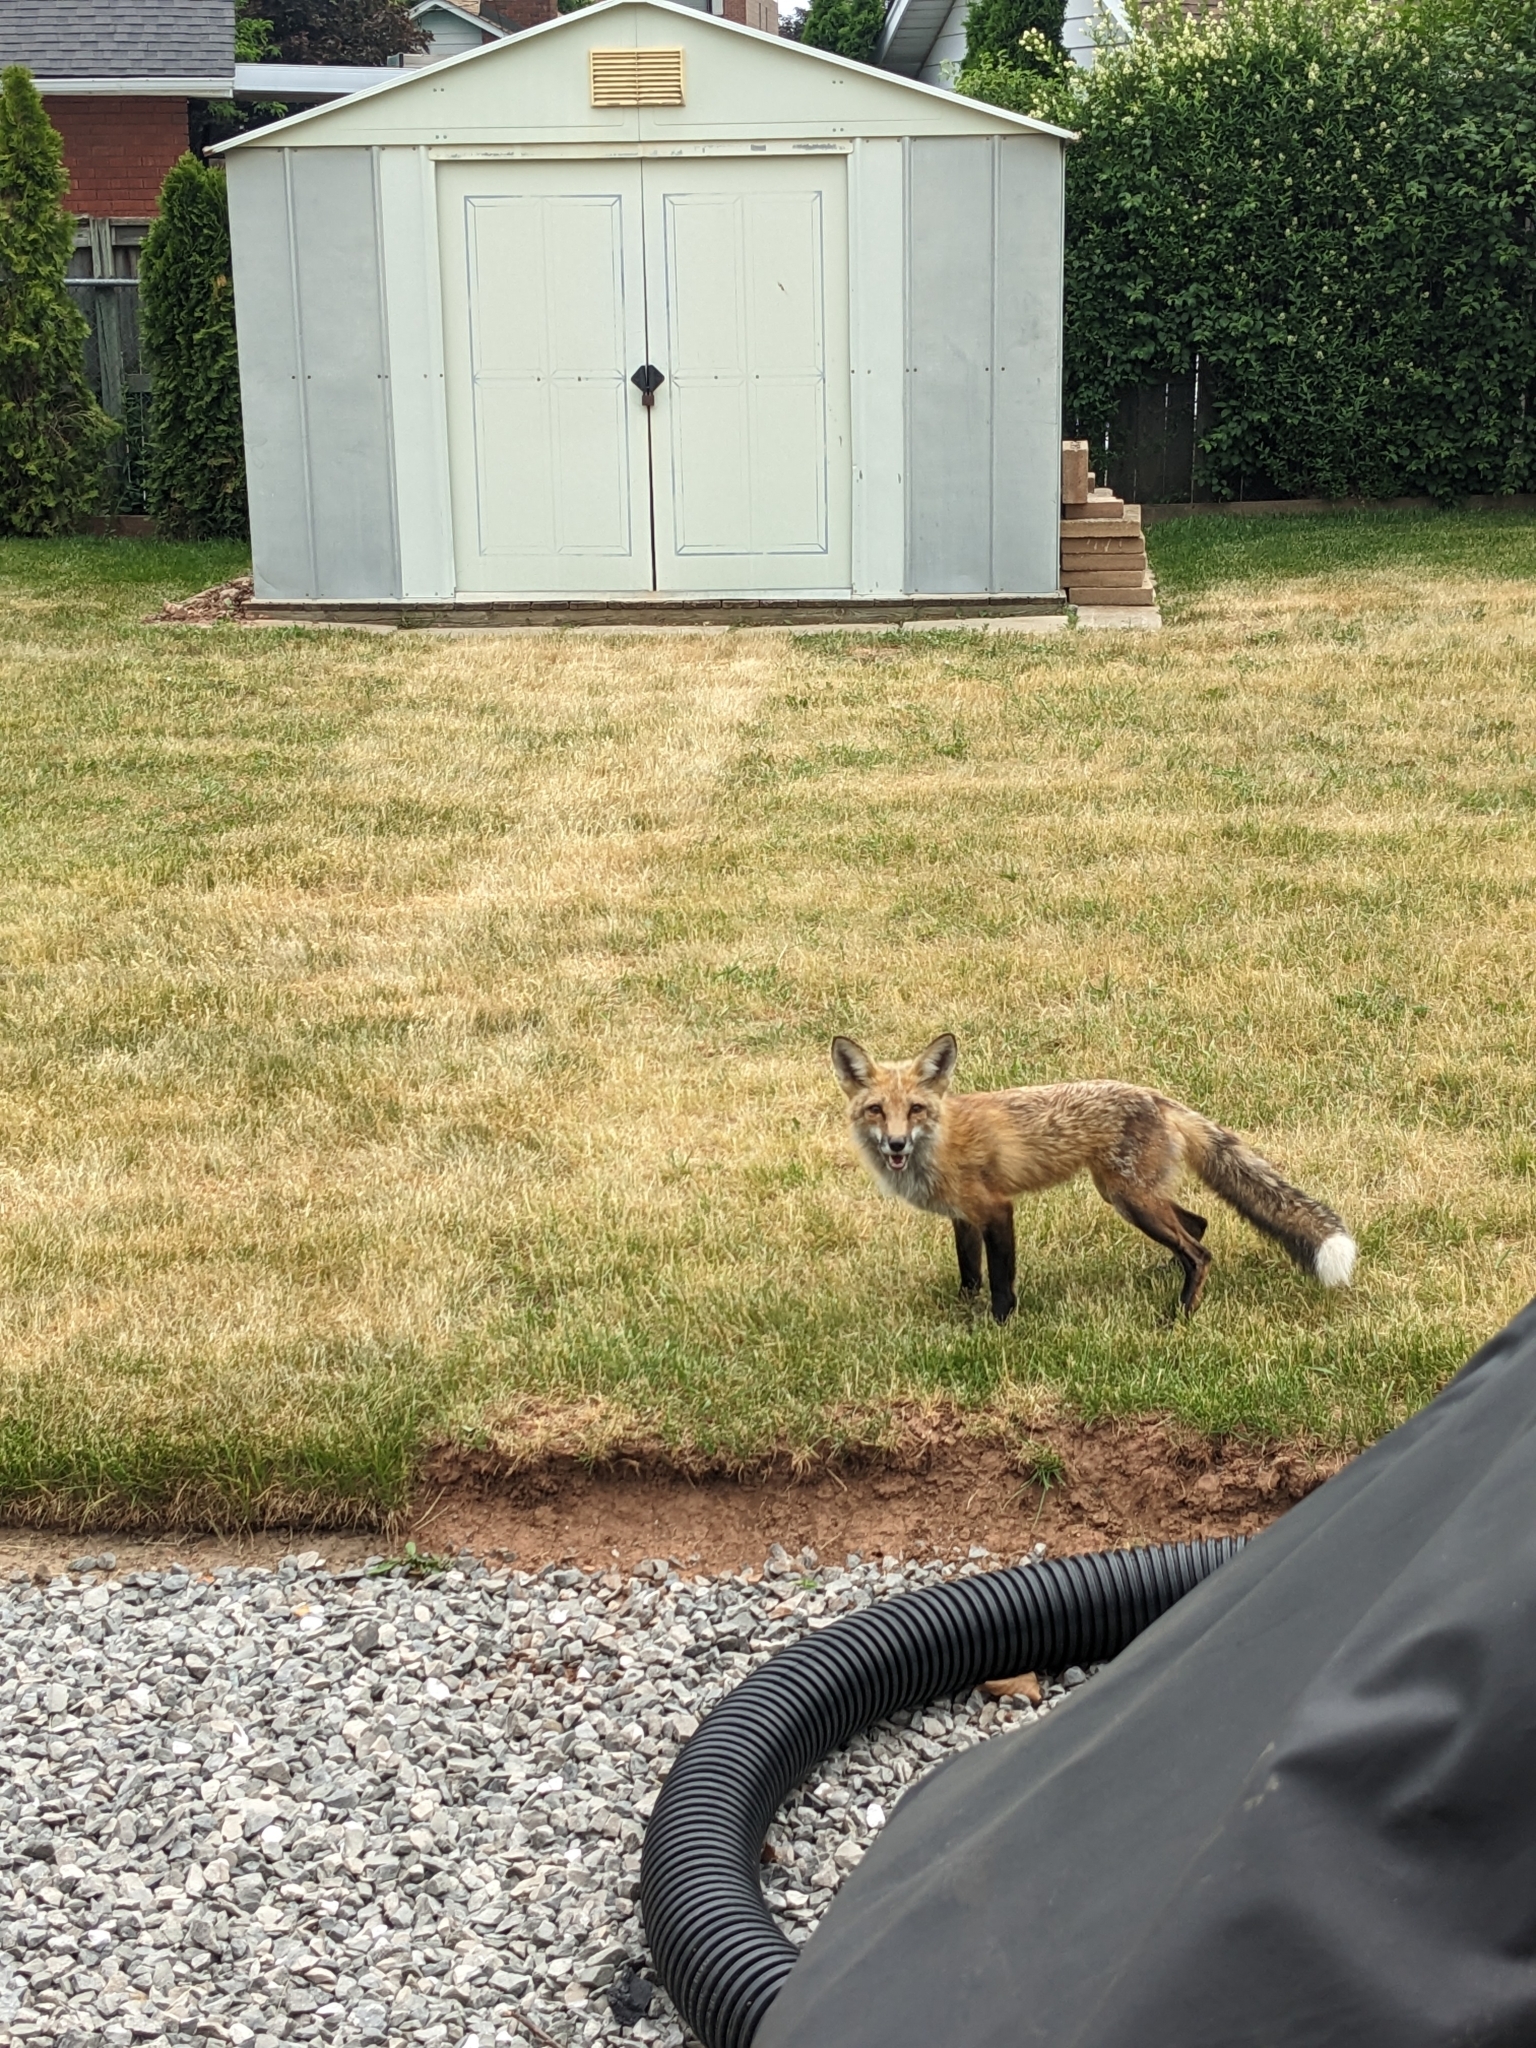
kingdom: Animalia
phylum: Chordata
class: Mammalia
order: Carnivora
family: Canidae
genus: Vulpes
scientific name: Vulpes vulpes
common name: Red fox
